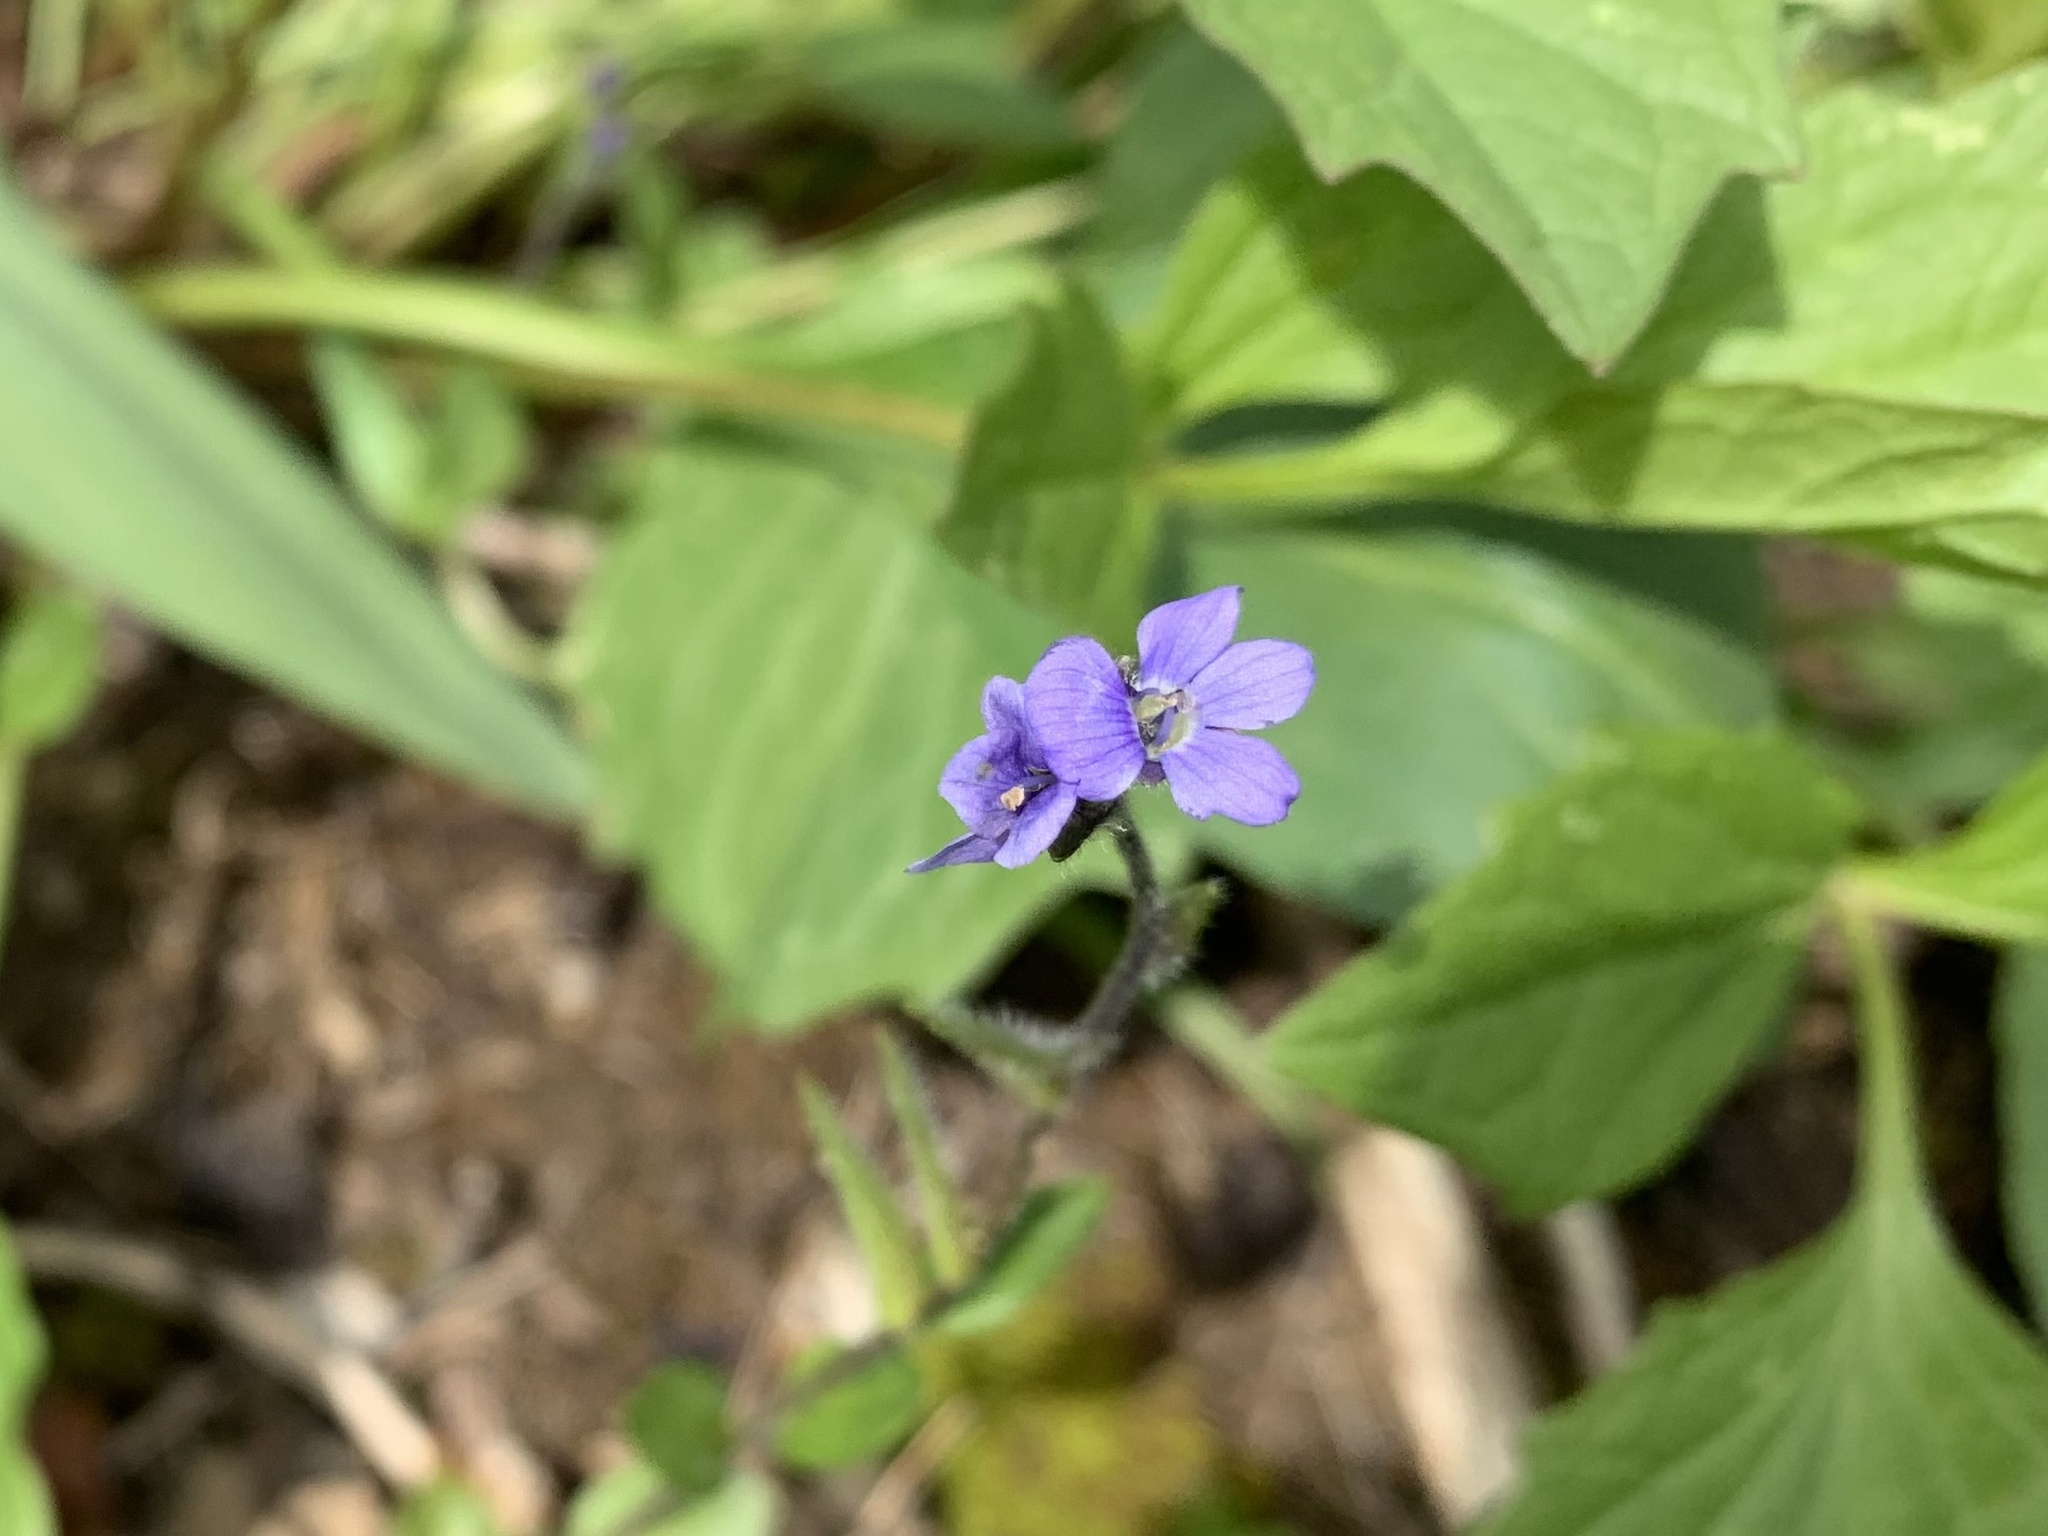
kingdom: Plantae
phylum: Tracheophyta
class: Magnoliopsida
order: Lamiales
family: Plantaginaceae
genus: Veronica
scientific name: Veronica wormskjoldii
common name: American alpine speedwell
